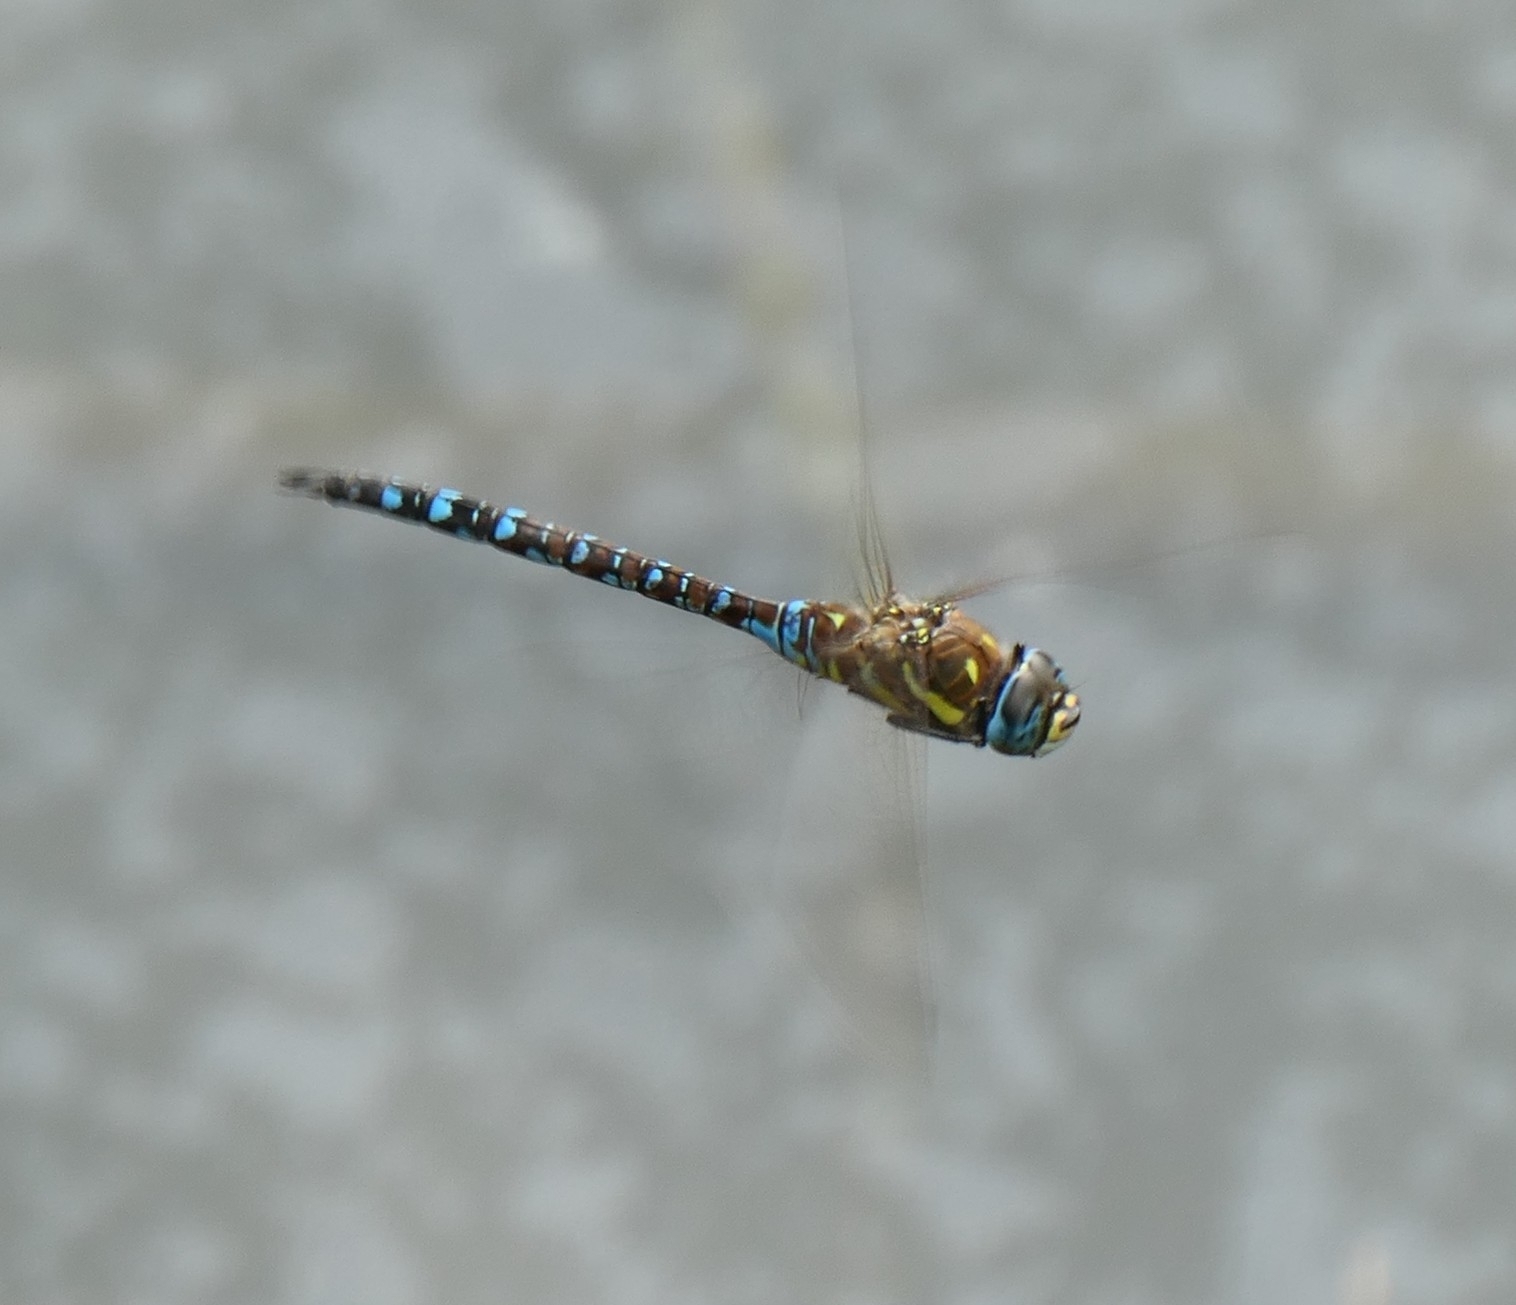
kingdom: Animalia
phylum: Arthropoda
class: Insecta
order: Odonata
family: Aeshnidae
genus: Aeshna
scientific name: Aeshna mixta
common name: Migrant hawker
